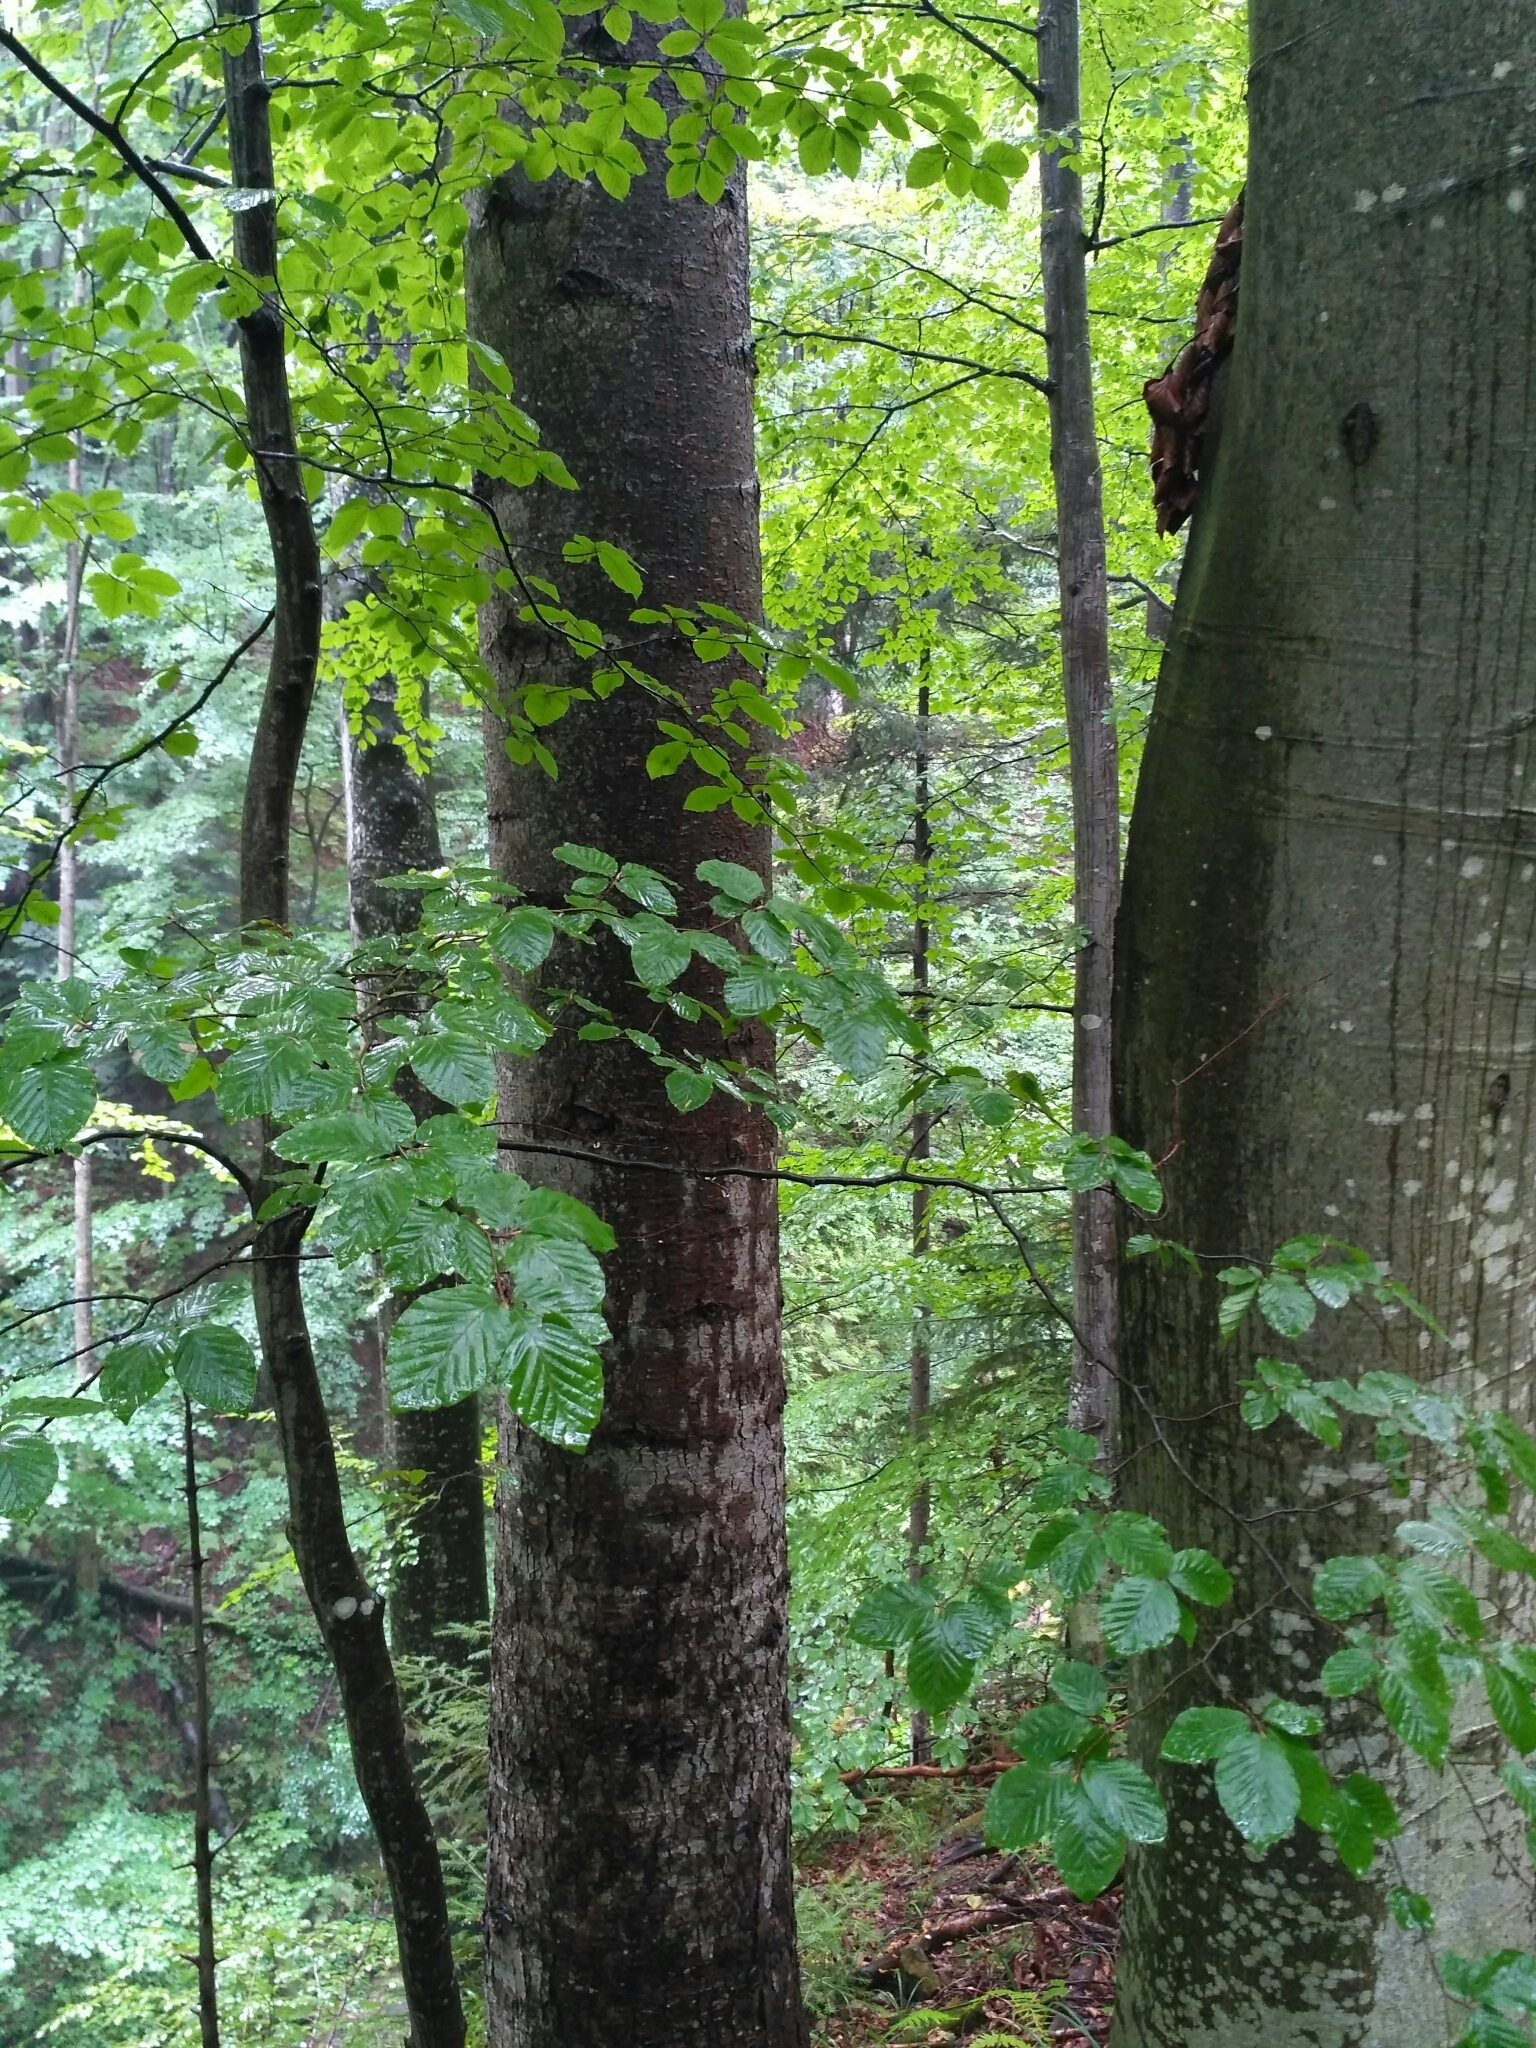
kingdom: Plantae
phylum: Tracheophyta
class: Magnoliopsida
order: Fagales
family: Fagaceae
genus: Fagus
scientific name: Fagus sylvatica
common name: Beech
